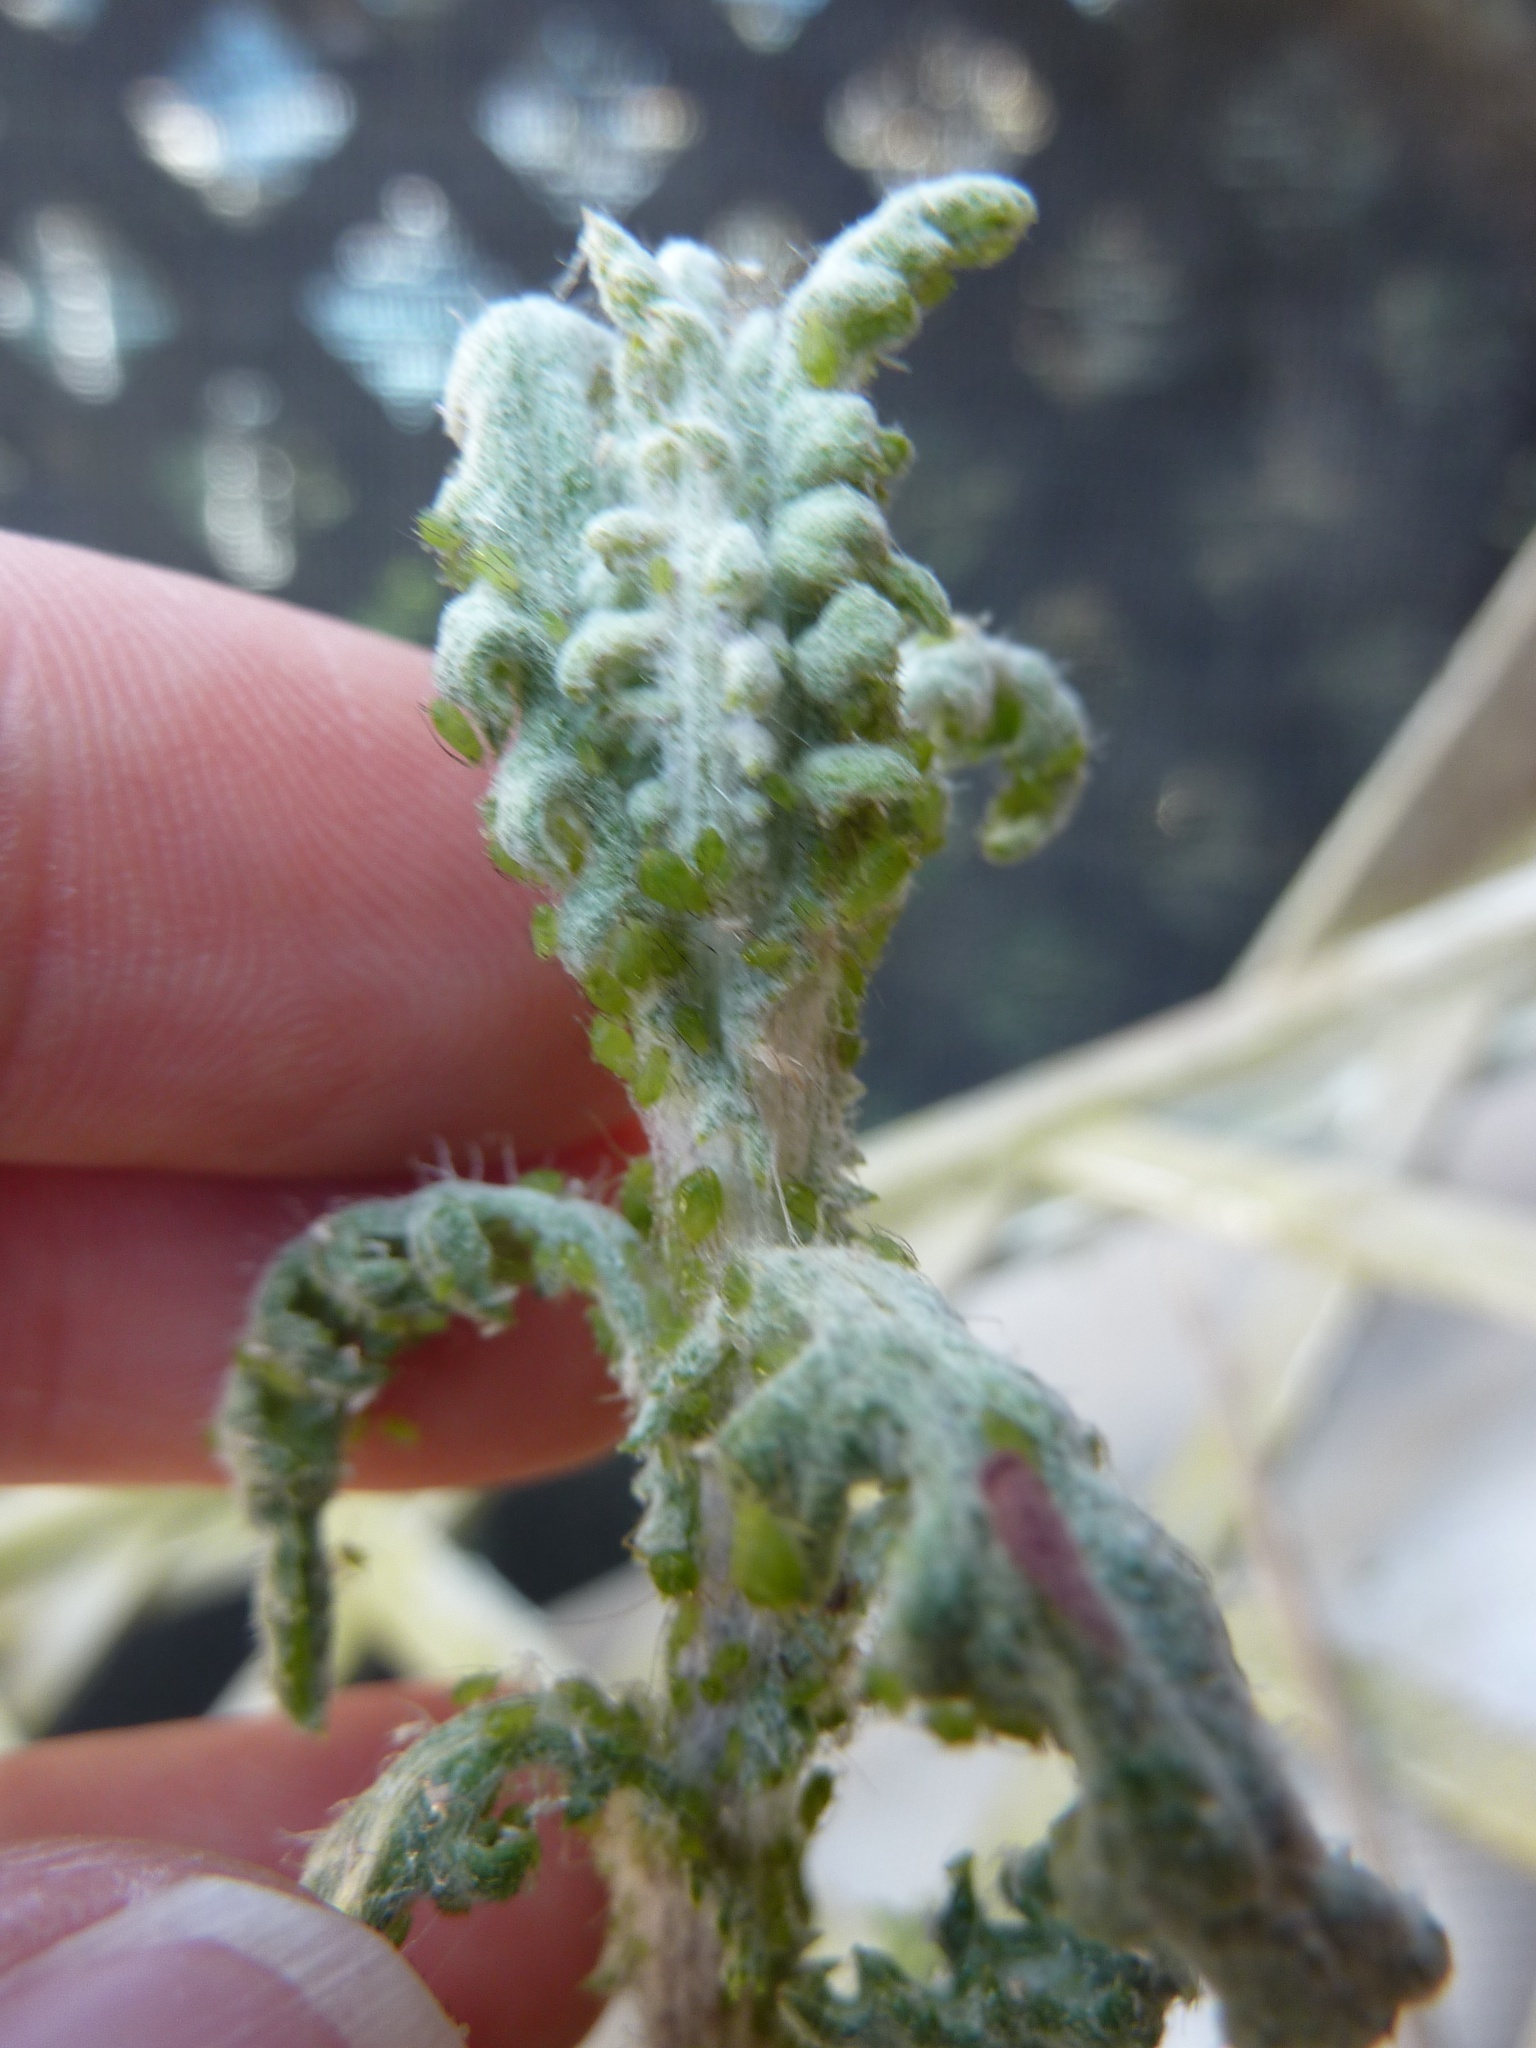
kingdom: Plantae
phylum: Tracheophyta
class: Magnoliopsida
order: Asterales
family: Asteraceae
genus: Senecio
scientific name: Senecio glomeratus
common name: Cutleaf burnweed
